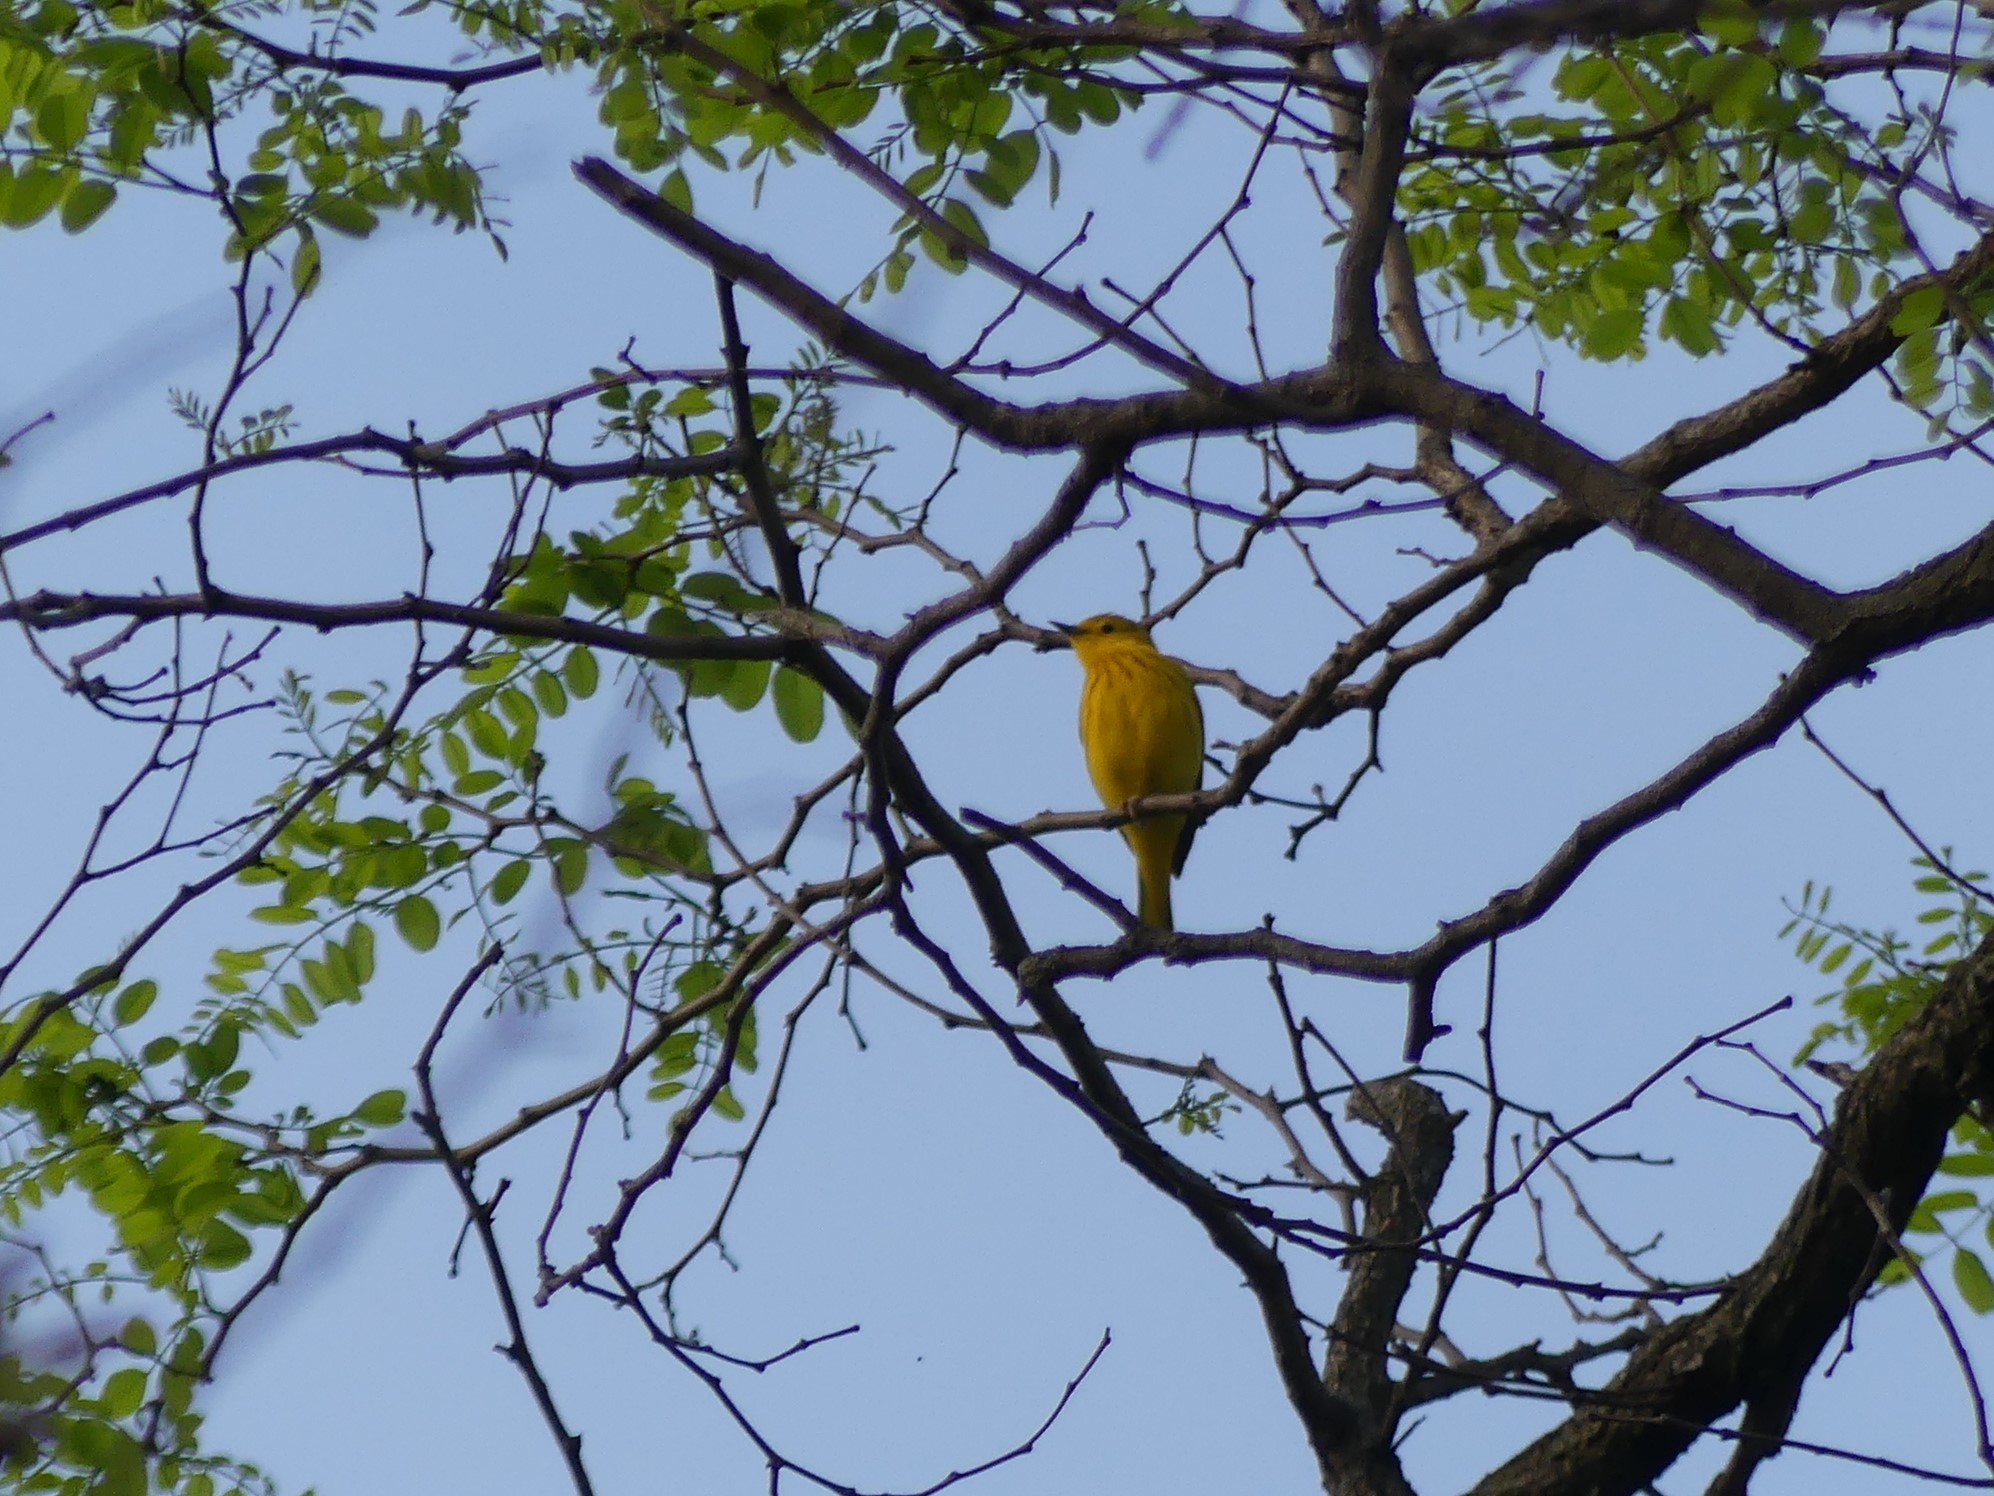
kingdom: Animalia
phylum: Chordata
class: Aves
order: Passeriformes
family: Parulidae
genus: Setophaga
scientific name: Setophaga petechia
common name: Yellow warbler
